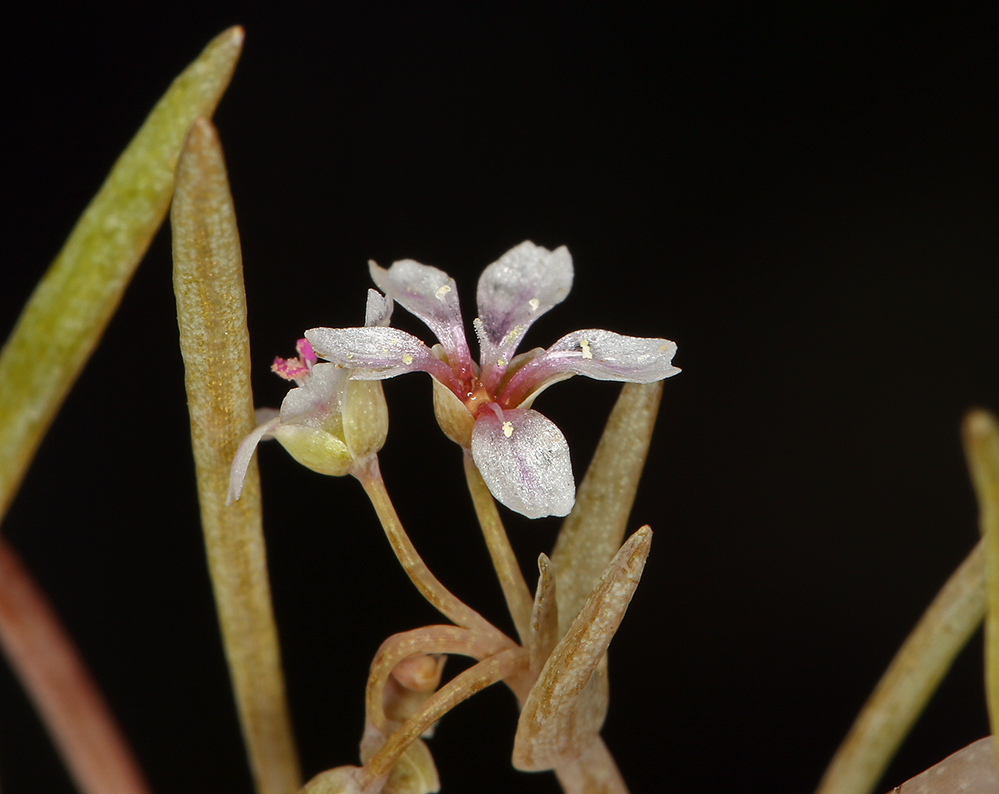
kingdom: Plantae
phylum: Tracheophyta
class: Magnoliopsida
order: Caryophyllales
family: Montiaceae
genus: Claytonia
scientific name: Claytonia exigua
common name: Pale spring beauty
